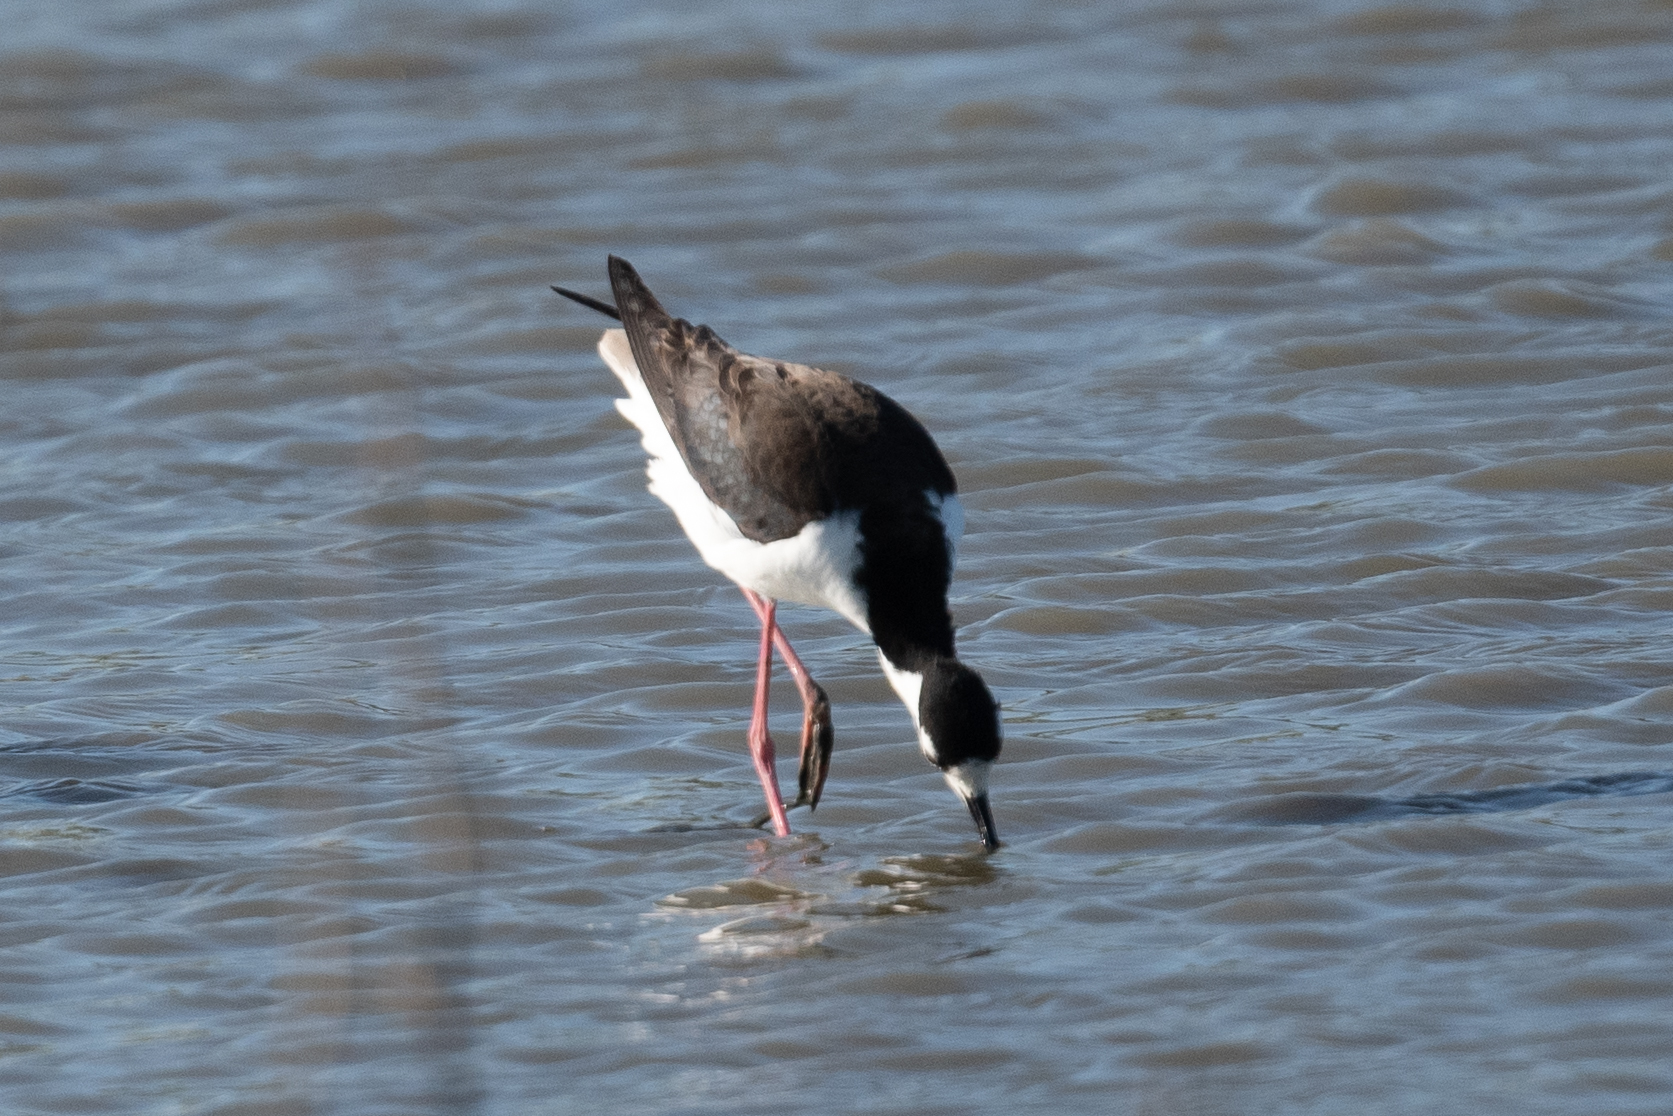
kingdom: Animalia
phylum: Chordata
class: Aves
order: Charadriiformes
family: Recurvirostridae
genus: Himantopus
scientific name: Himantopus mexicanus
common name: Black-necked stilt
